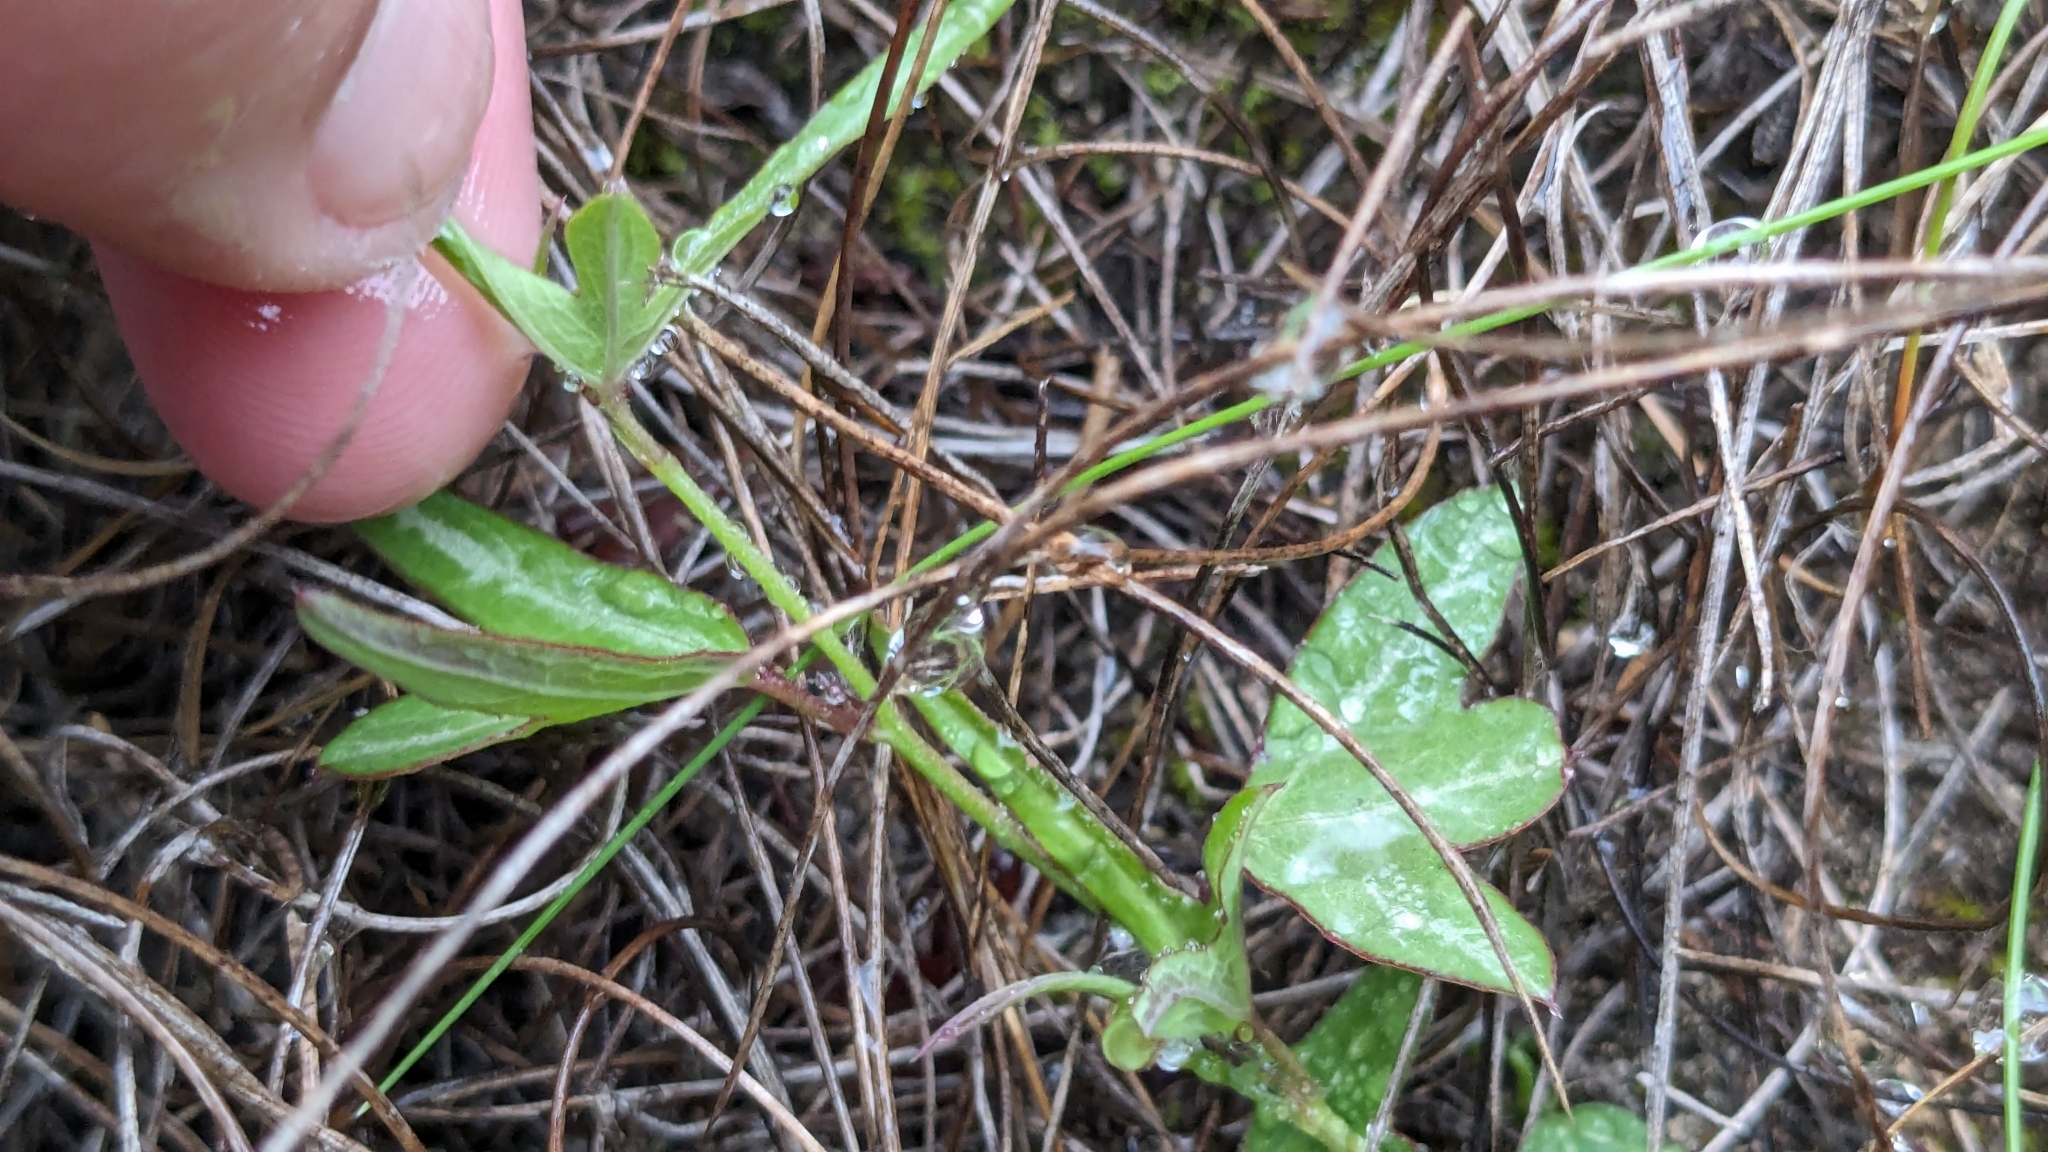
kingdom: Plantae
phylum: Tracheophyta
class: Magnoliopsida
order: Malpighiales
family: Passifloraceae
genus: Passiflora
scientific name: Passiflora tenuiloba
